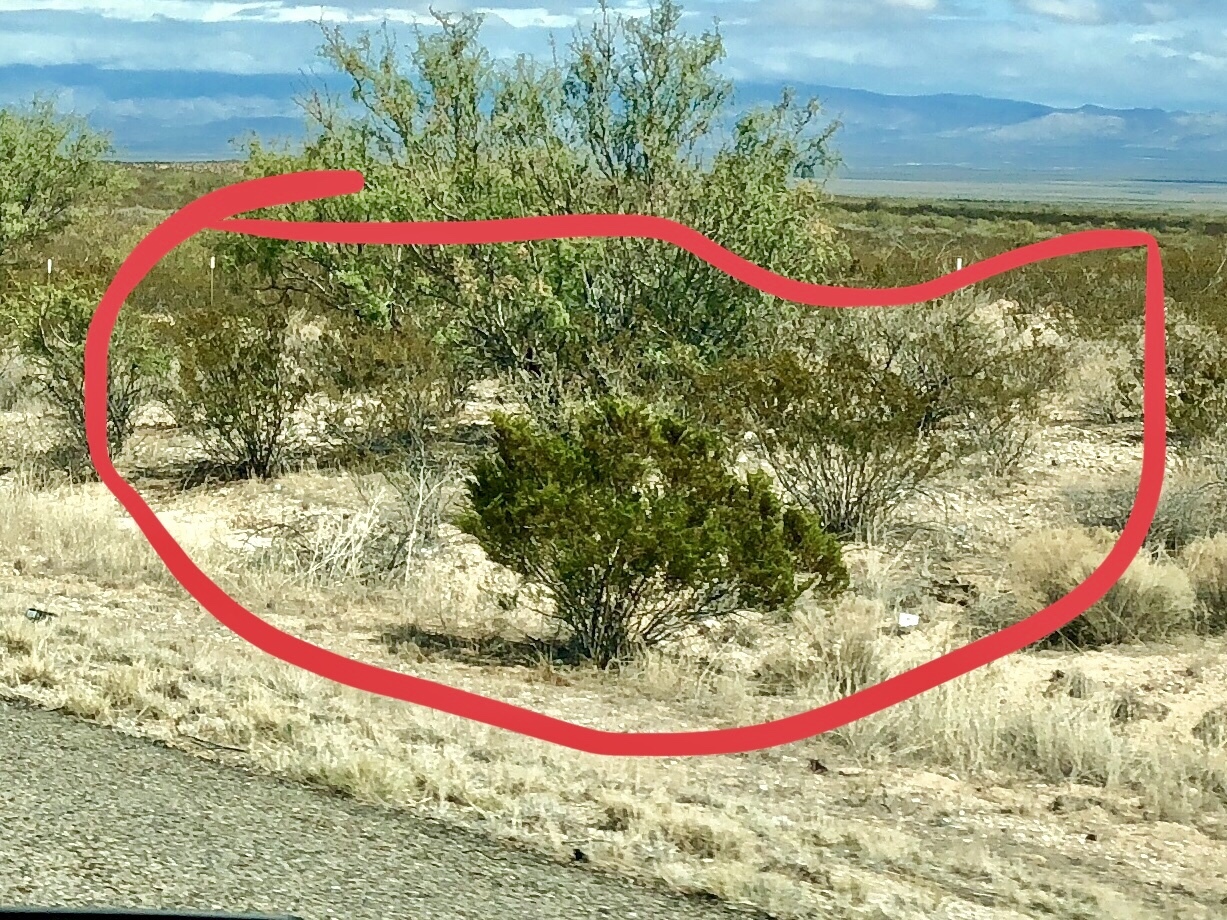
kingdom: Plantae
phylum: Tracheophyta
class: Magnoliopsida
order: Zygophyllales
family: Zygophyllaceae
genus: Larrea
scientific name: Larrea tridentata
